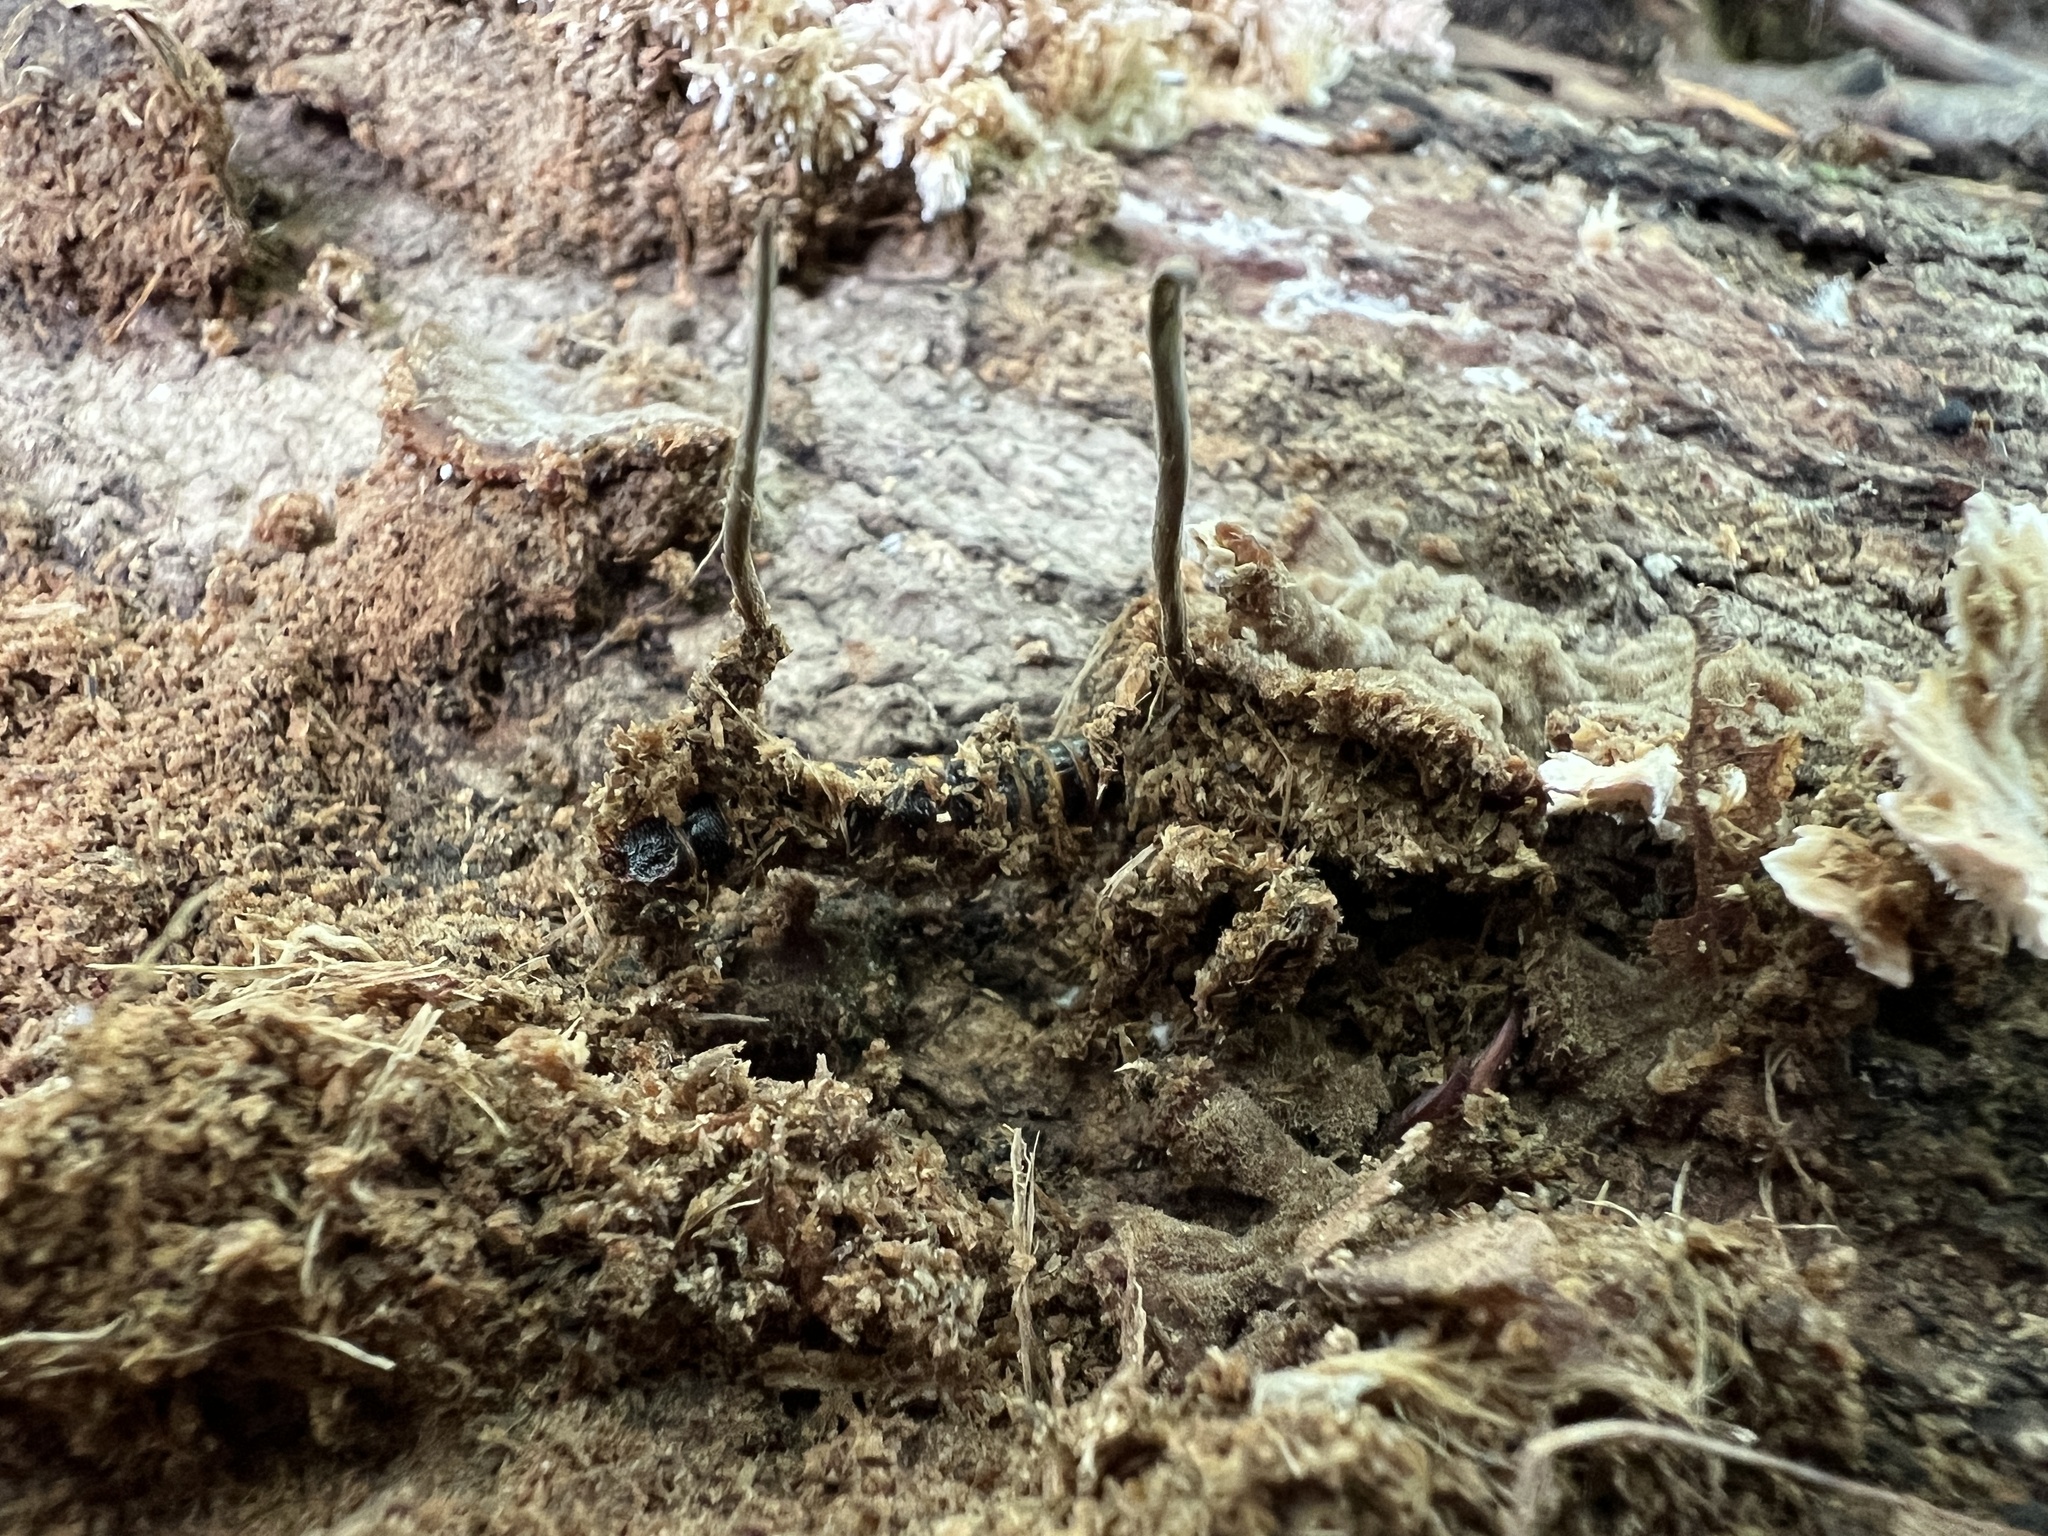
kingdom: Fungi
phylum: Ascomycota
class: Sordariomycetes
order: Hypocreales
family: Ophiocordycipitaceae
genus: Ophiocordyceps
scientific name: Ophiocordyceps stylophora
